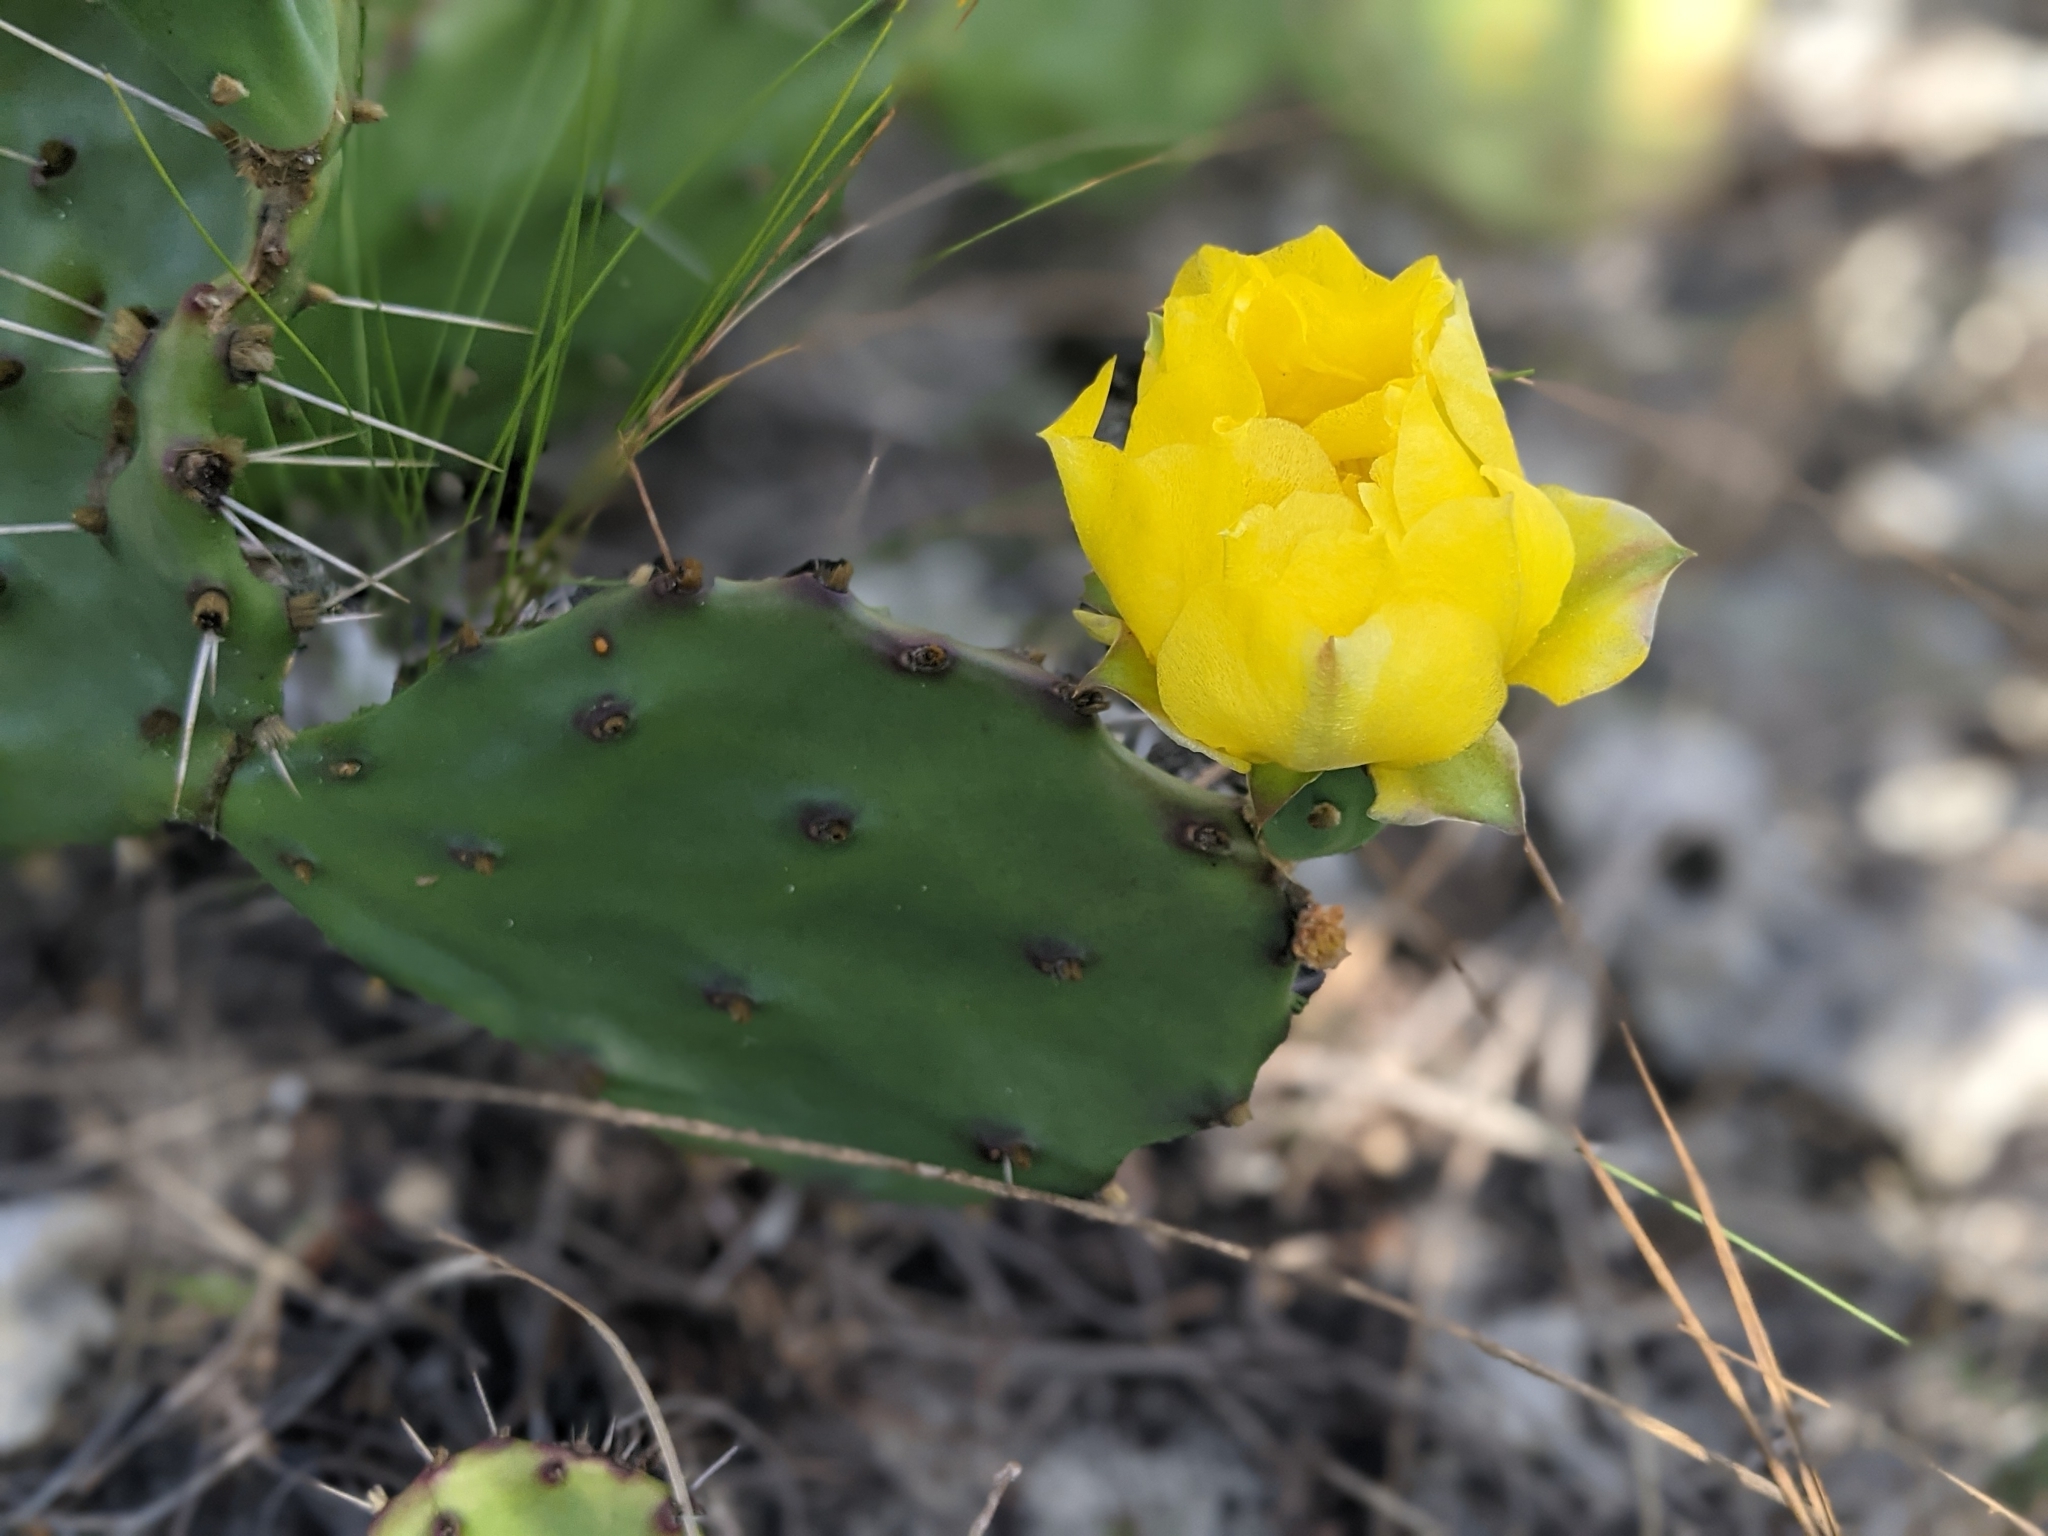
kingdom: Plantae
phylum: Tracheophyta
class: Magnoliopsida
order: Caryophyllales
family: Cactaceae
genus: Opuntia
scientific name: Opuntia humifusa
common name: Eastern prickly-pear
